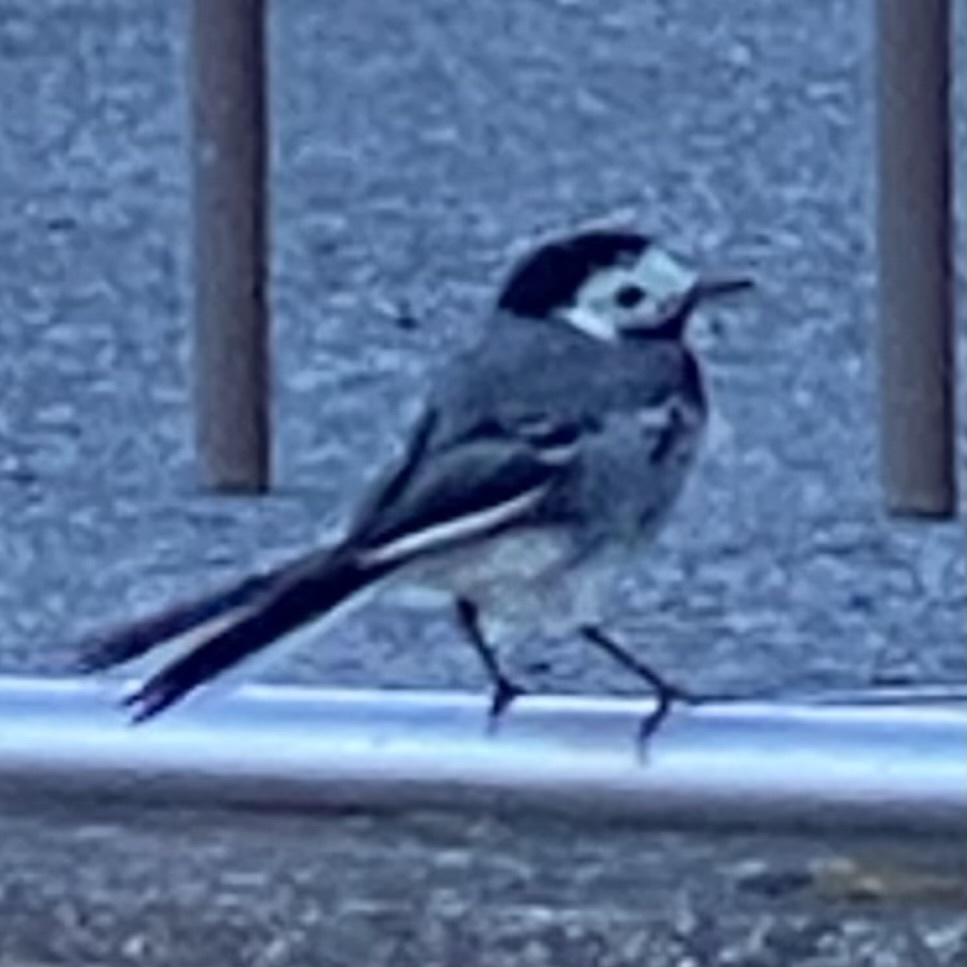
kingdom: Animalia
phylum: Chordata
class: Aves
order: Passeriformes
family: Motacillidae
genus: Motacilla
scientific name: Motacilla alba
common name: White wagtail
